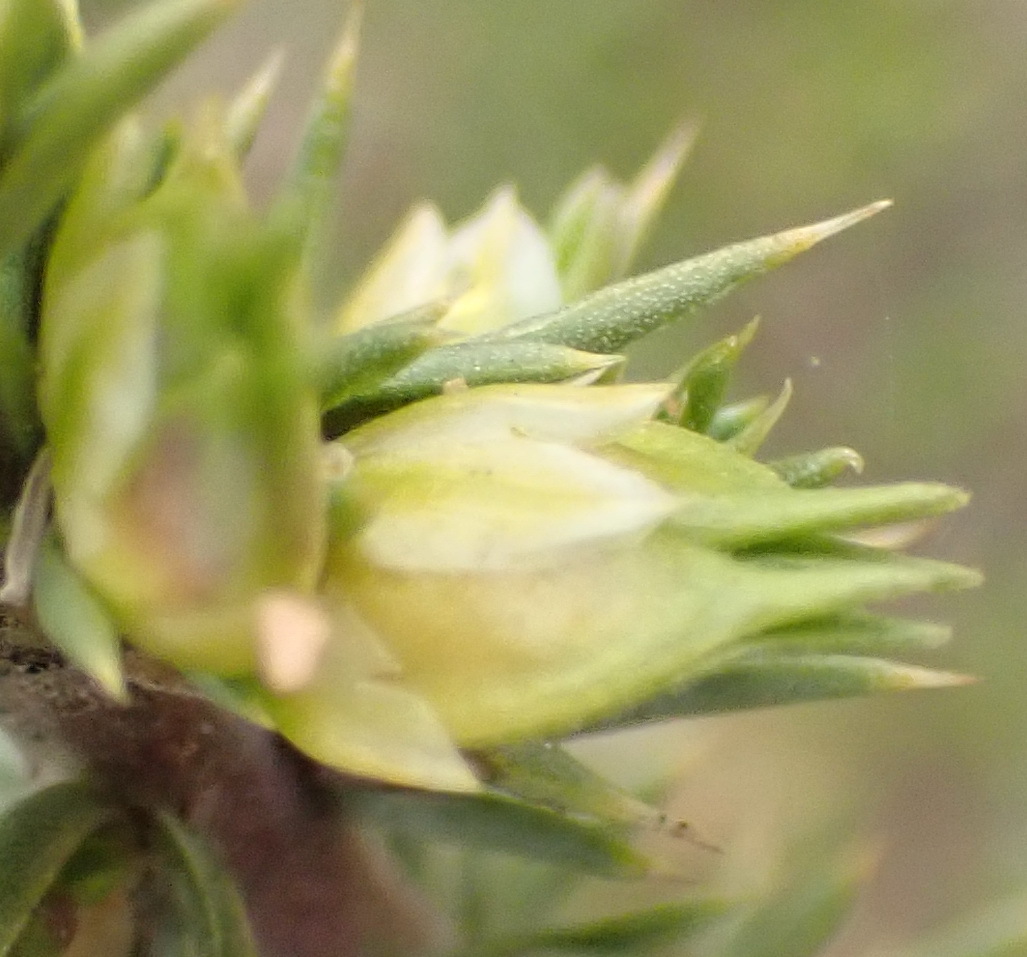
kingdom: Plantae
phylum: Tracheophyta
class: Magnoliopsida
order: Fabales
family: Polygalaceae
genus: Muraltia
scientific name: Muraltia ericifolia
